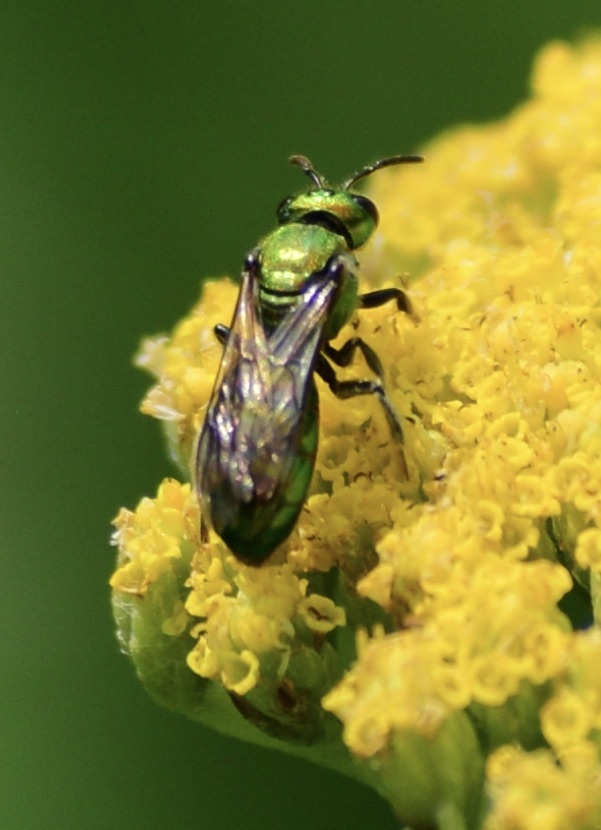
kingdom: Animalia
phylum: Arthropoda
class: Insecta
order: Hymenoptera
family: Halictidae
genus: Augochlora
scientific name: Augochlora pura
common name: Pure green sweat bee
